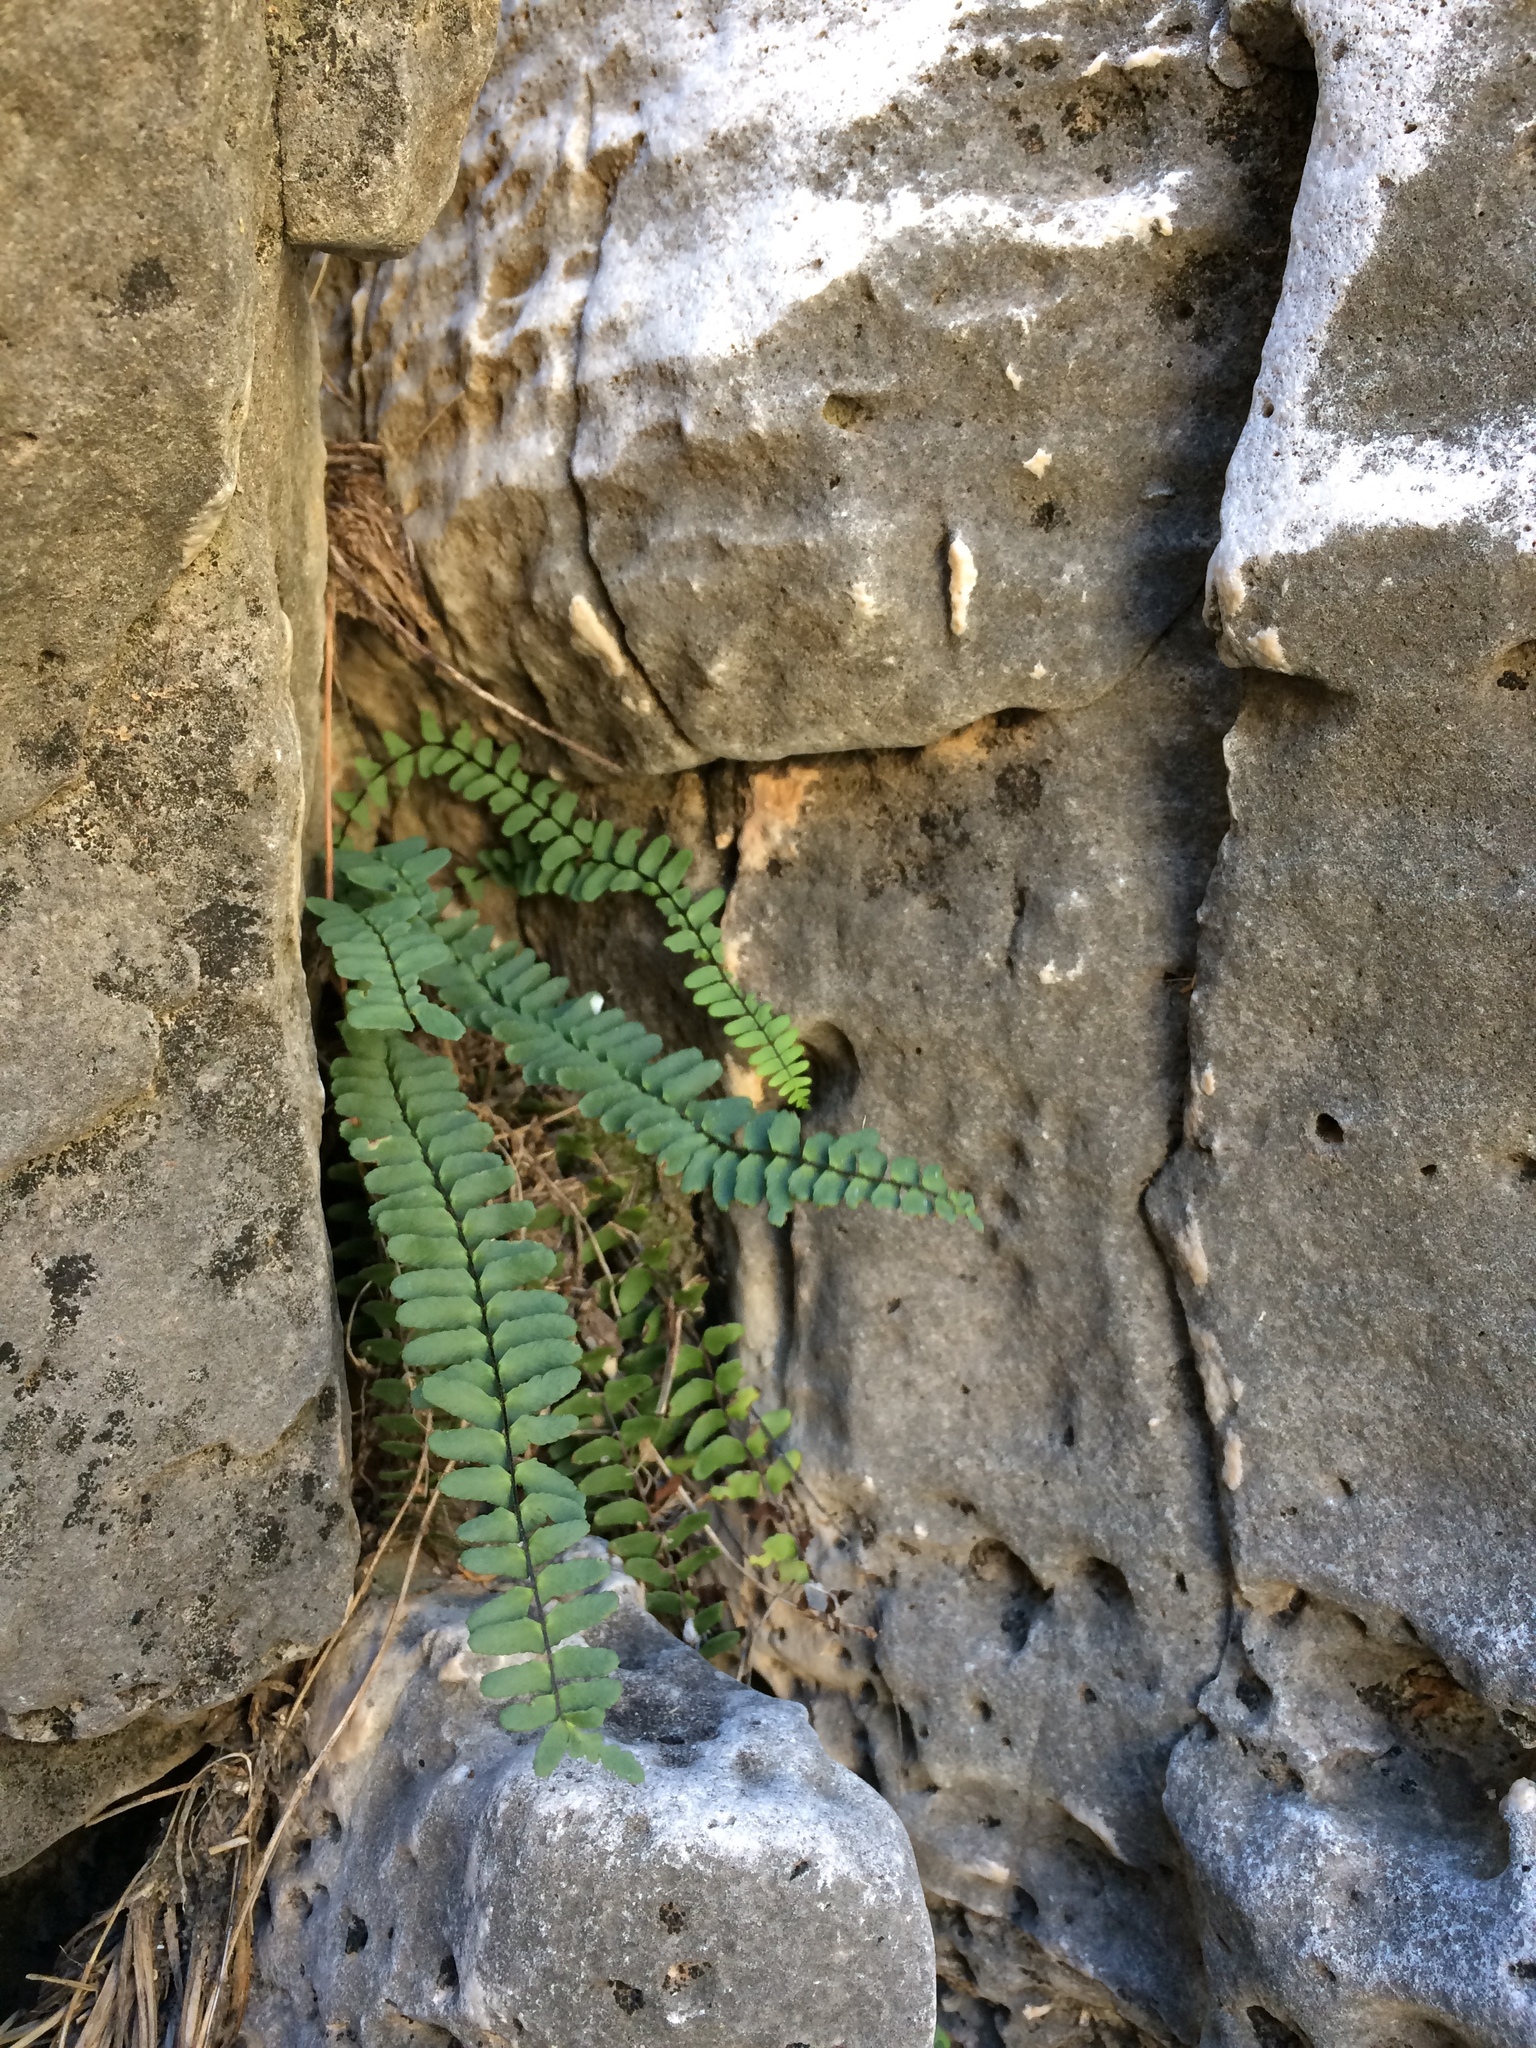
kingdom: Plantae
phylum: Tracheophyta
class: Polypodiopsida
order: Polypodiales
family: Aspleniaceae
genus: Asplenium
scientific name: Asplenium resiliens
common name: Blackstem spleenwort
